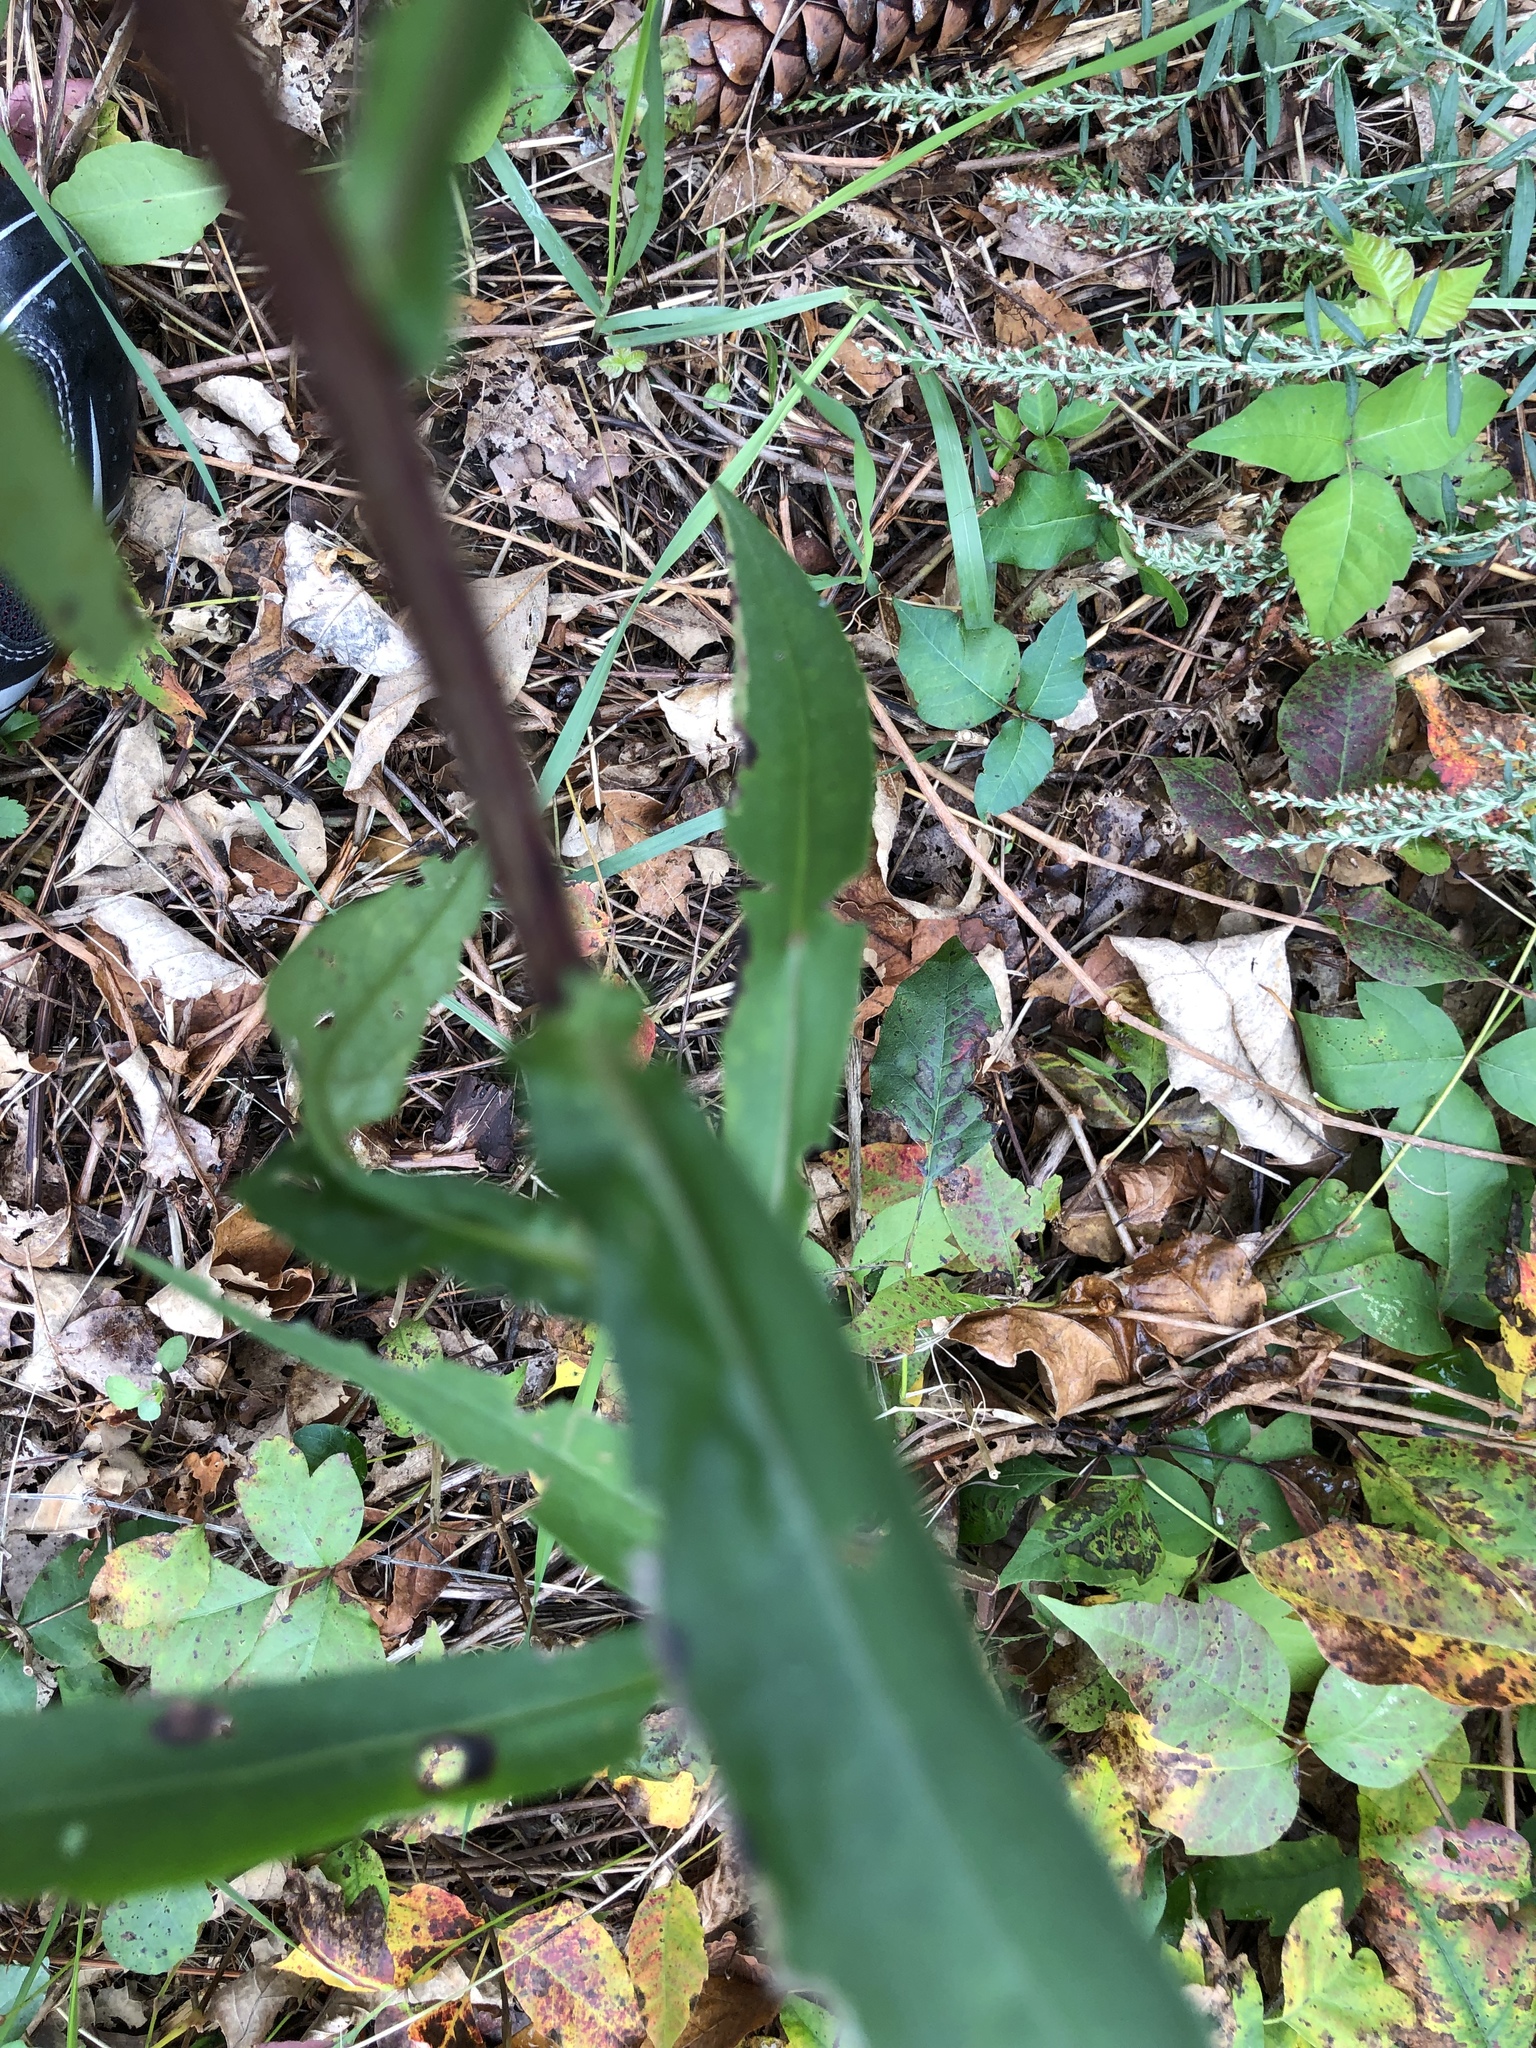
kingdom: Plantae
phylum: Tracheophyta
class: Magnoliopsida
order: Asterales
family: Asteraceae
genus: Symphyotrichum
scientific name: Symphyotrichum novi-belgii
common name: Michaelmas daisy
